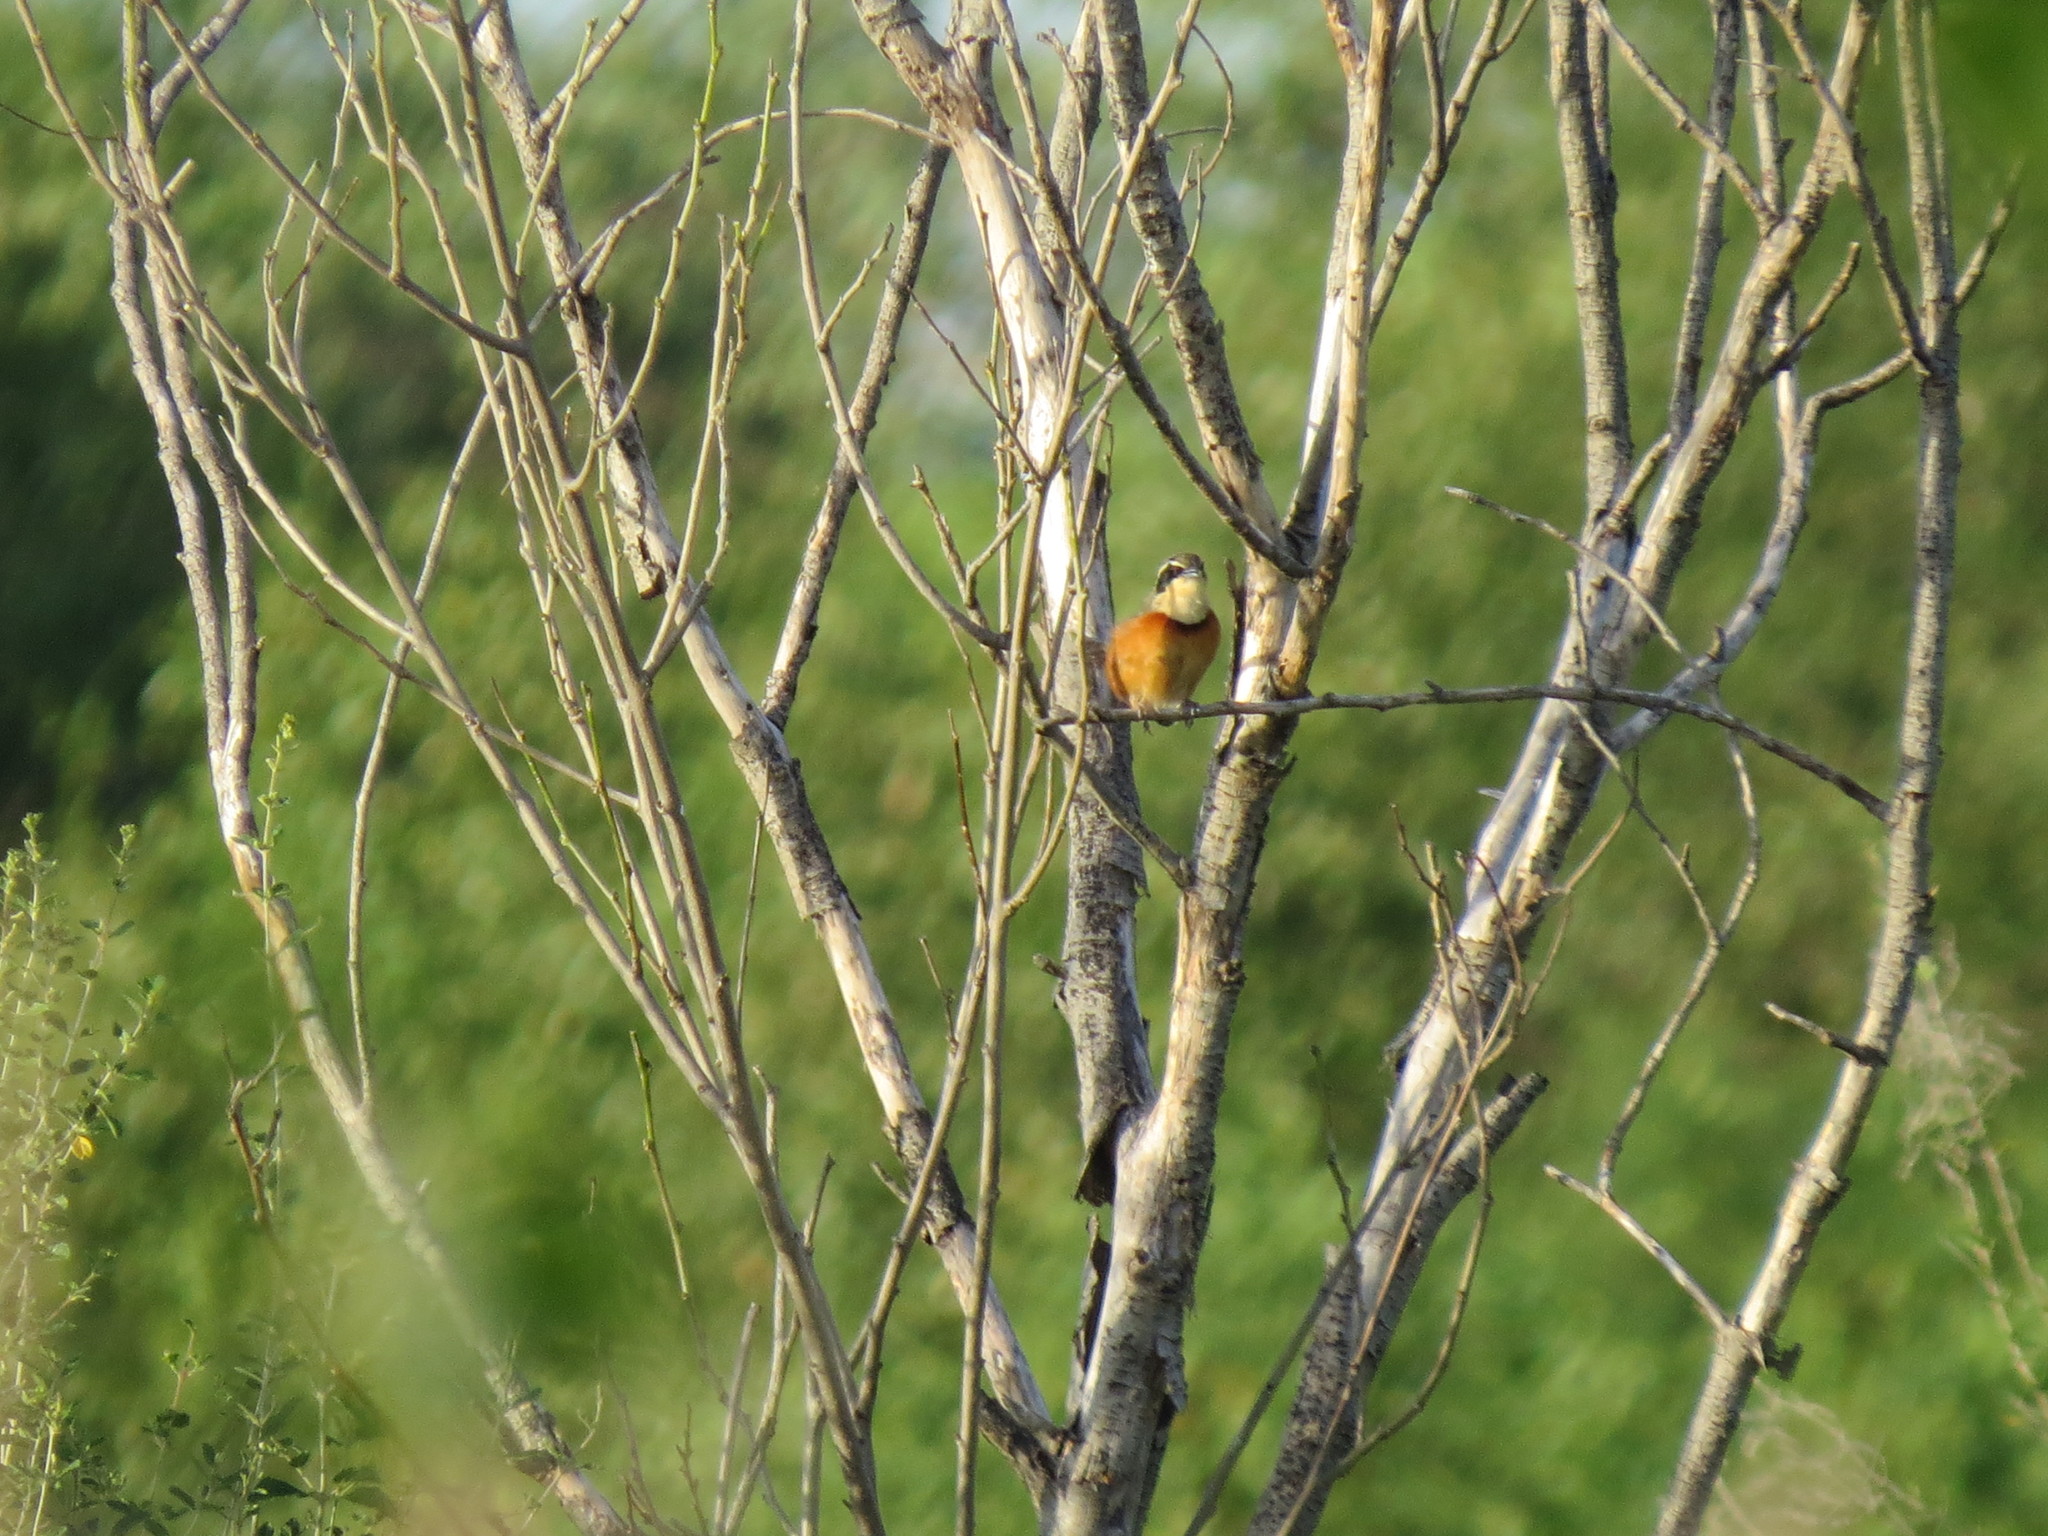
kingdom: Animalia
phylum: Chordata
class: Aves
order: Passeriformes
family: Melanopareiidae
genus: Melanopareia
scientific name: Melanopareia maximiliani
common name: Olive-crowned crescentchest
